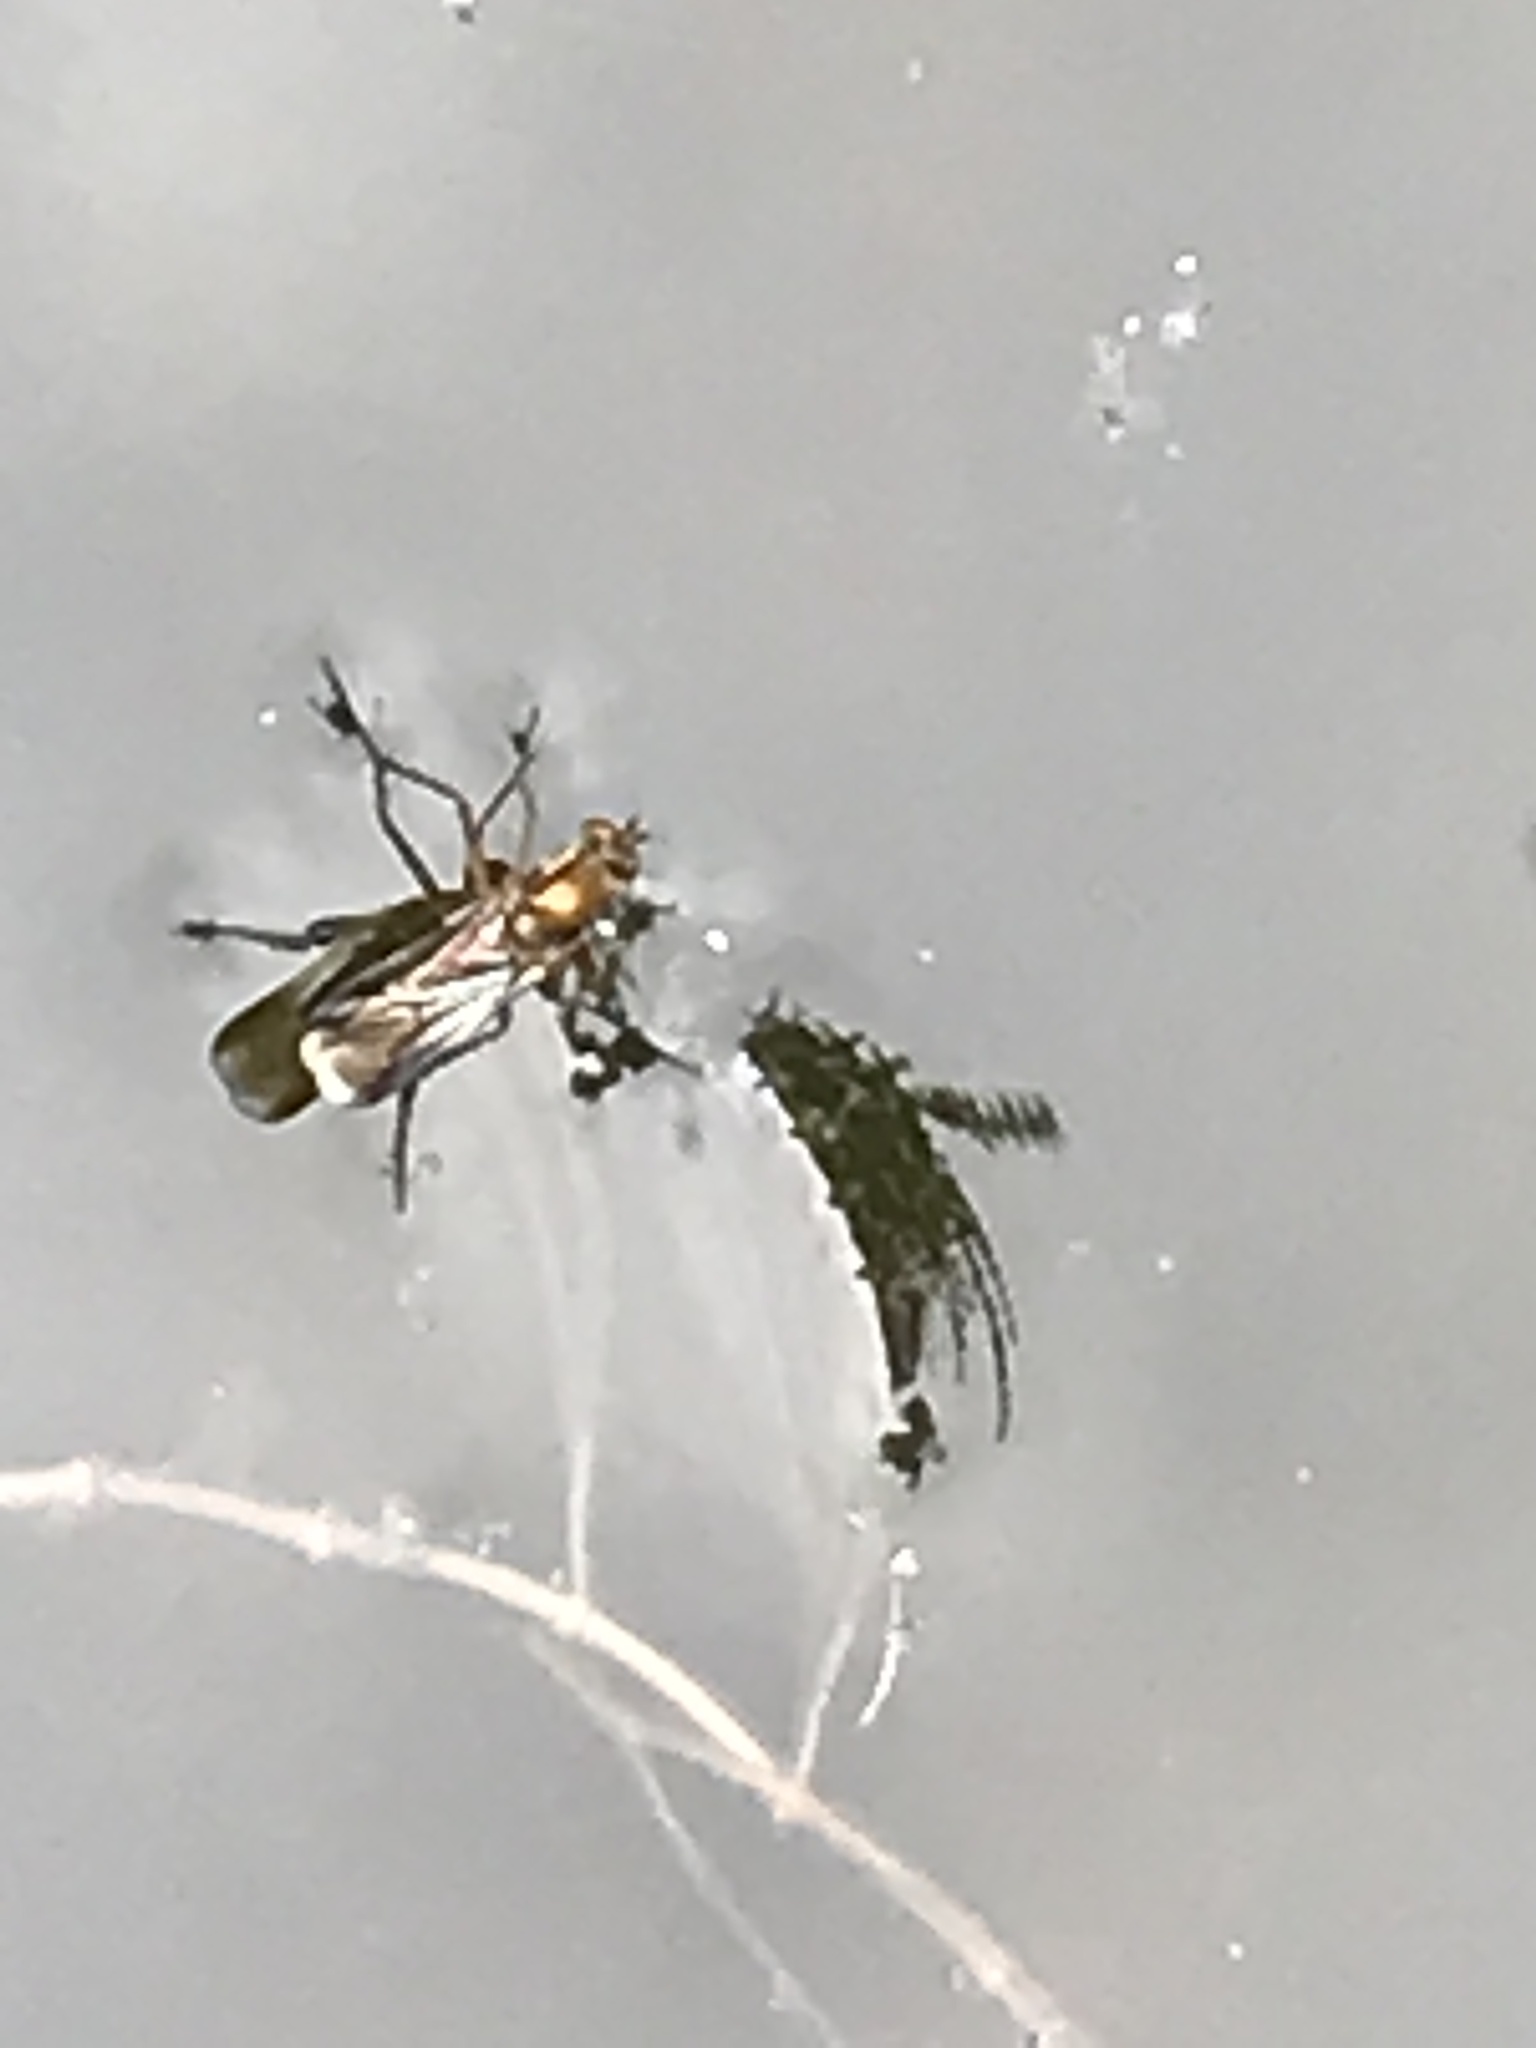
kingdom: Animalia
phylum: Arthropoda
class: Insecta
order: Diptera
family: Dolichopodidae
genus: Poecilobothrus
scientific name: Poecilobothrus nobilitatus
